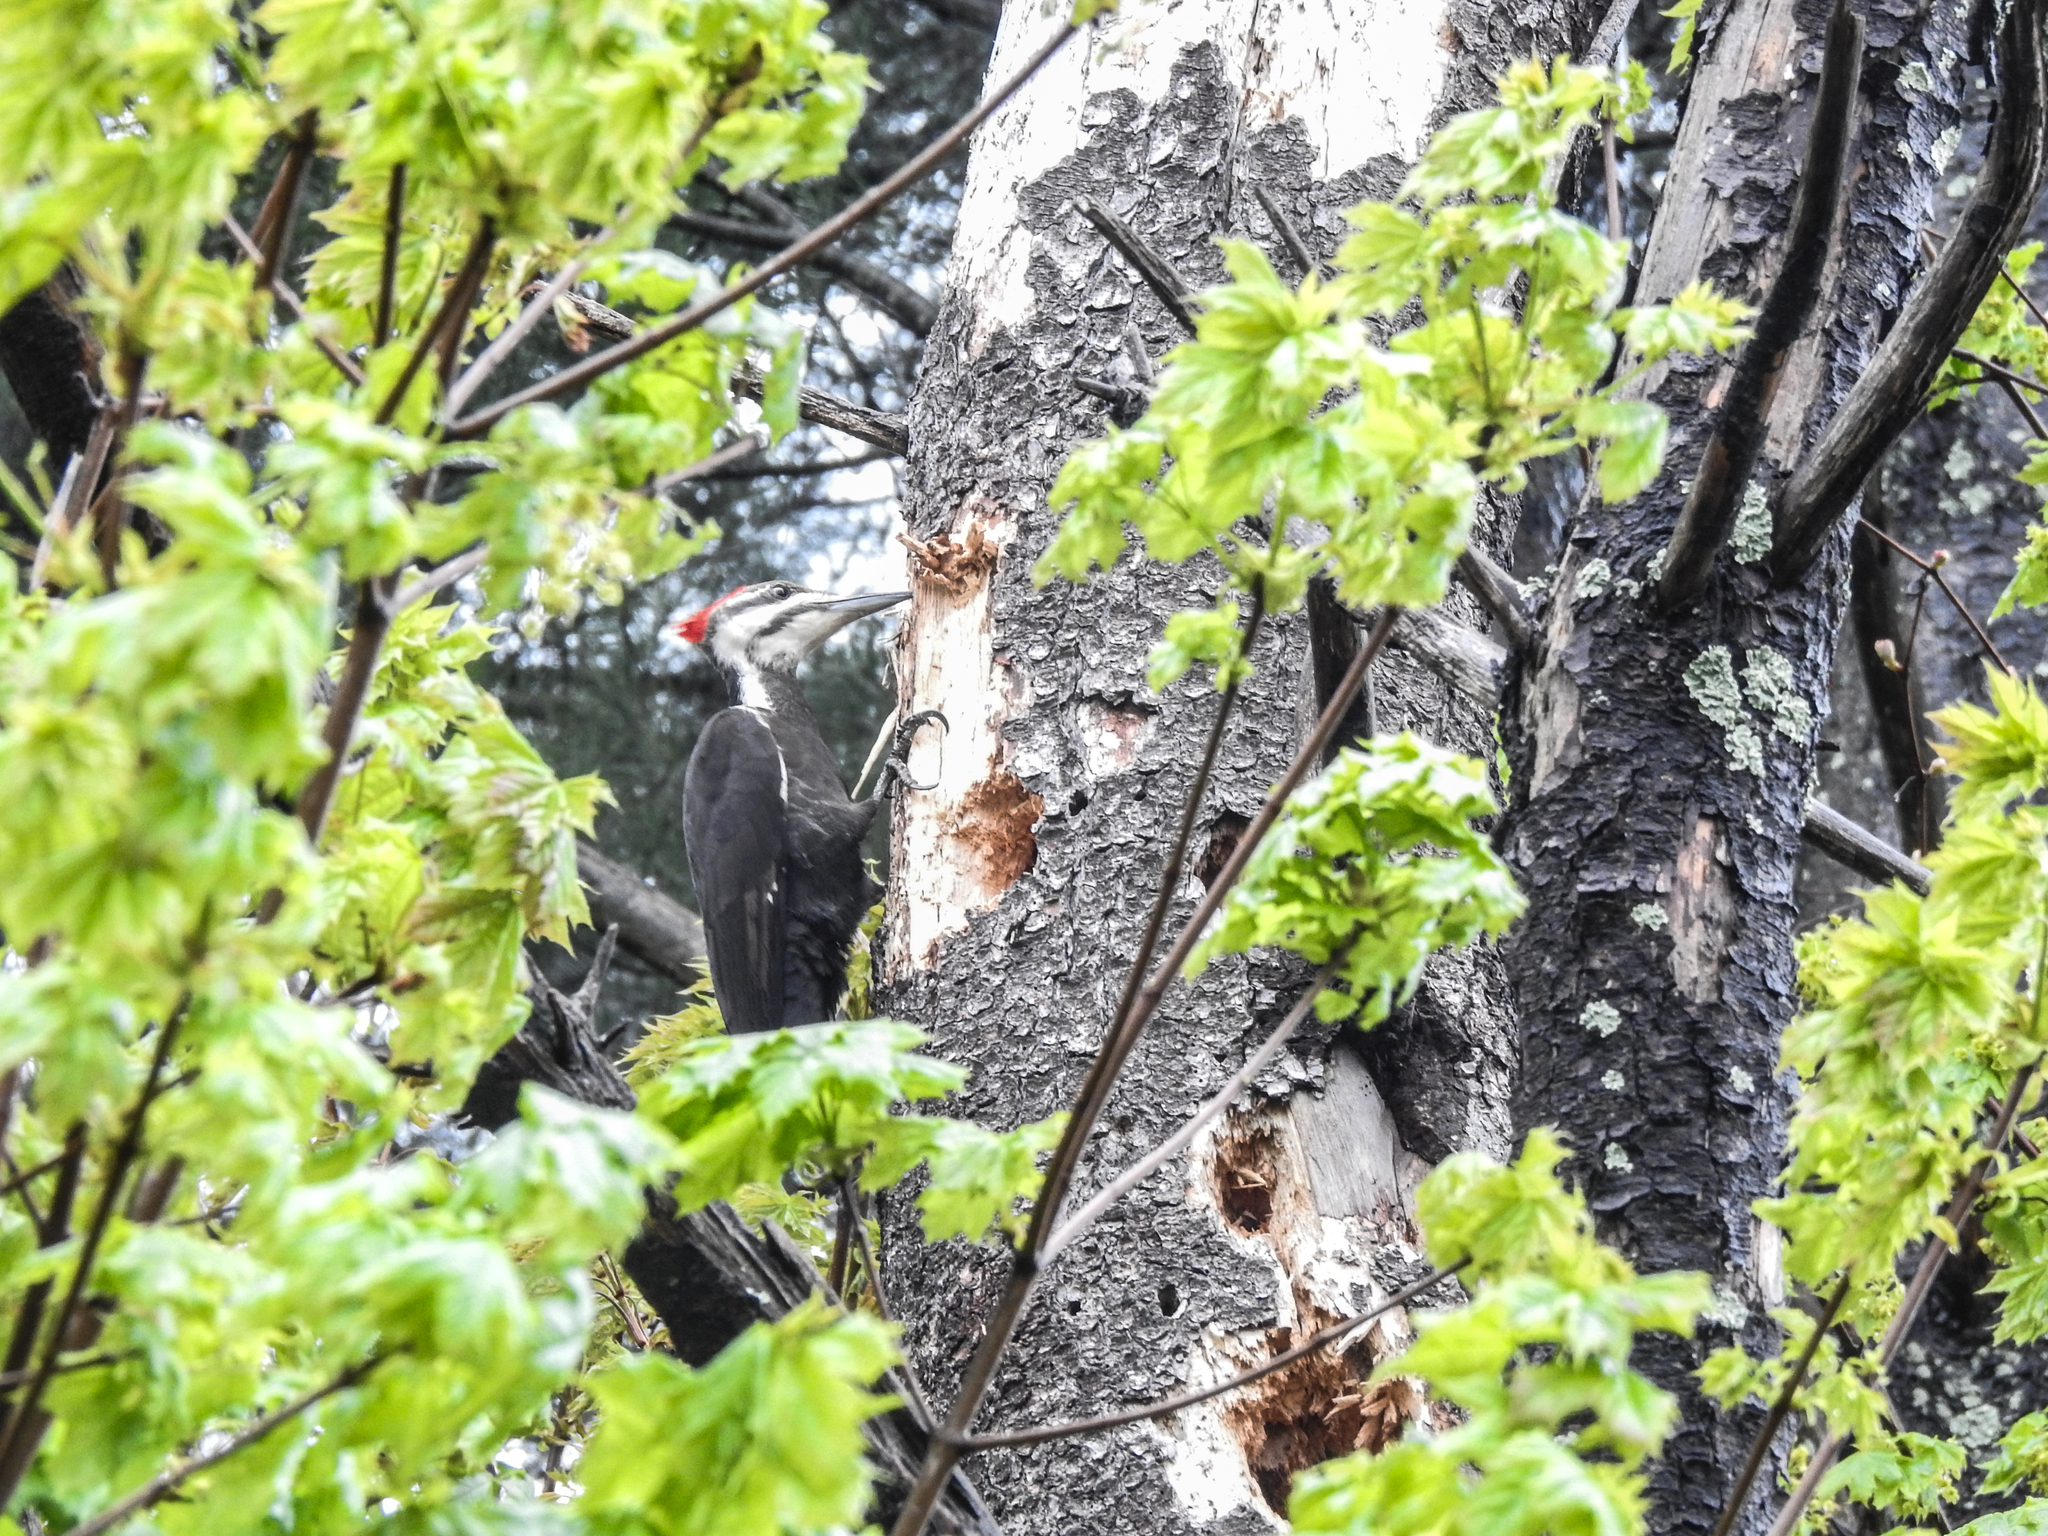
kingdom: Animalia
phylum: Chordata
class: Aves
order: Piciformes
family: Picidae
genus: Dryocopus
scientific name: Dryocopus pileatus
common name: Pileated woodpecker
